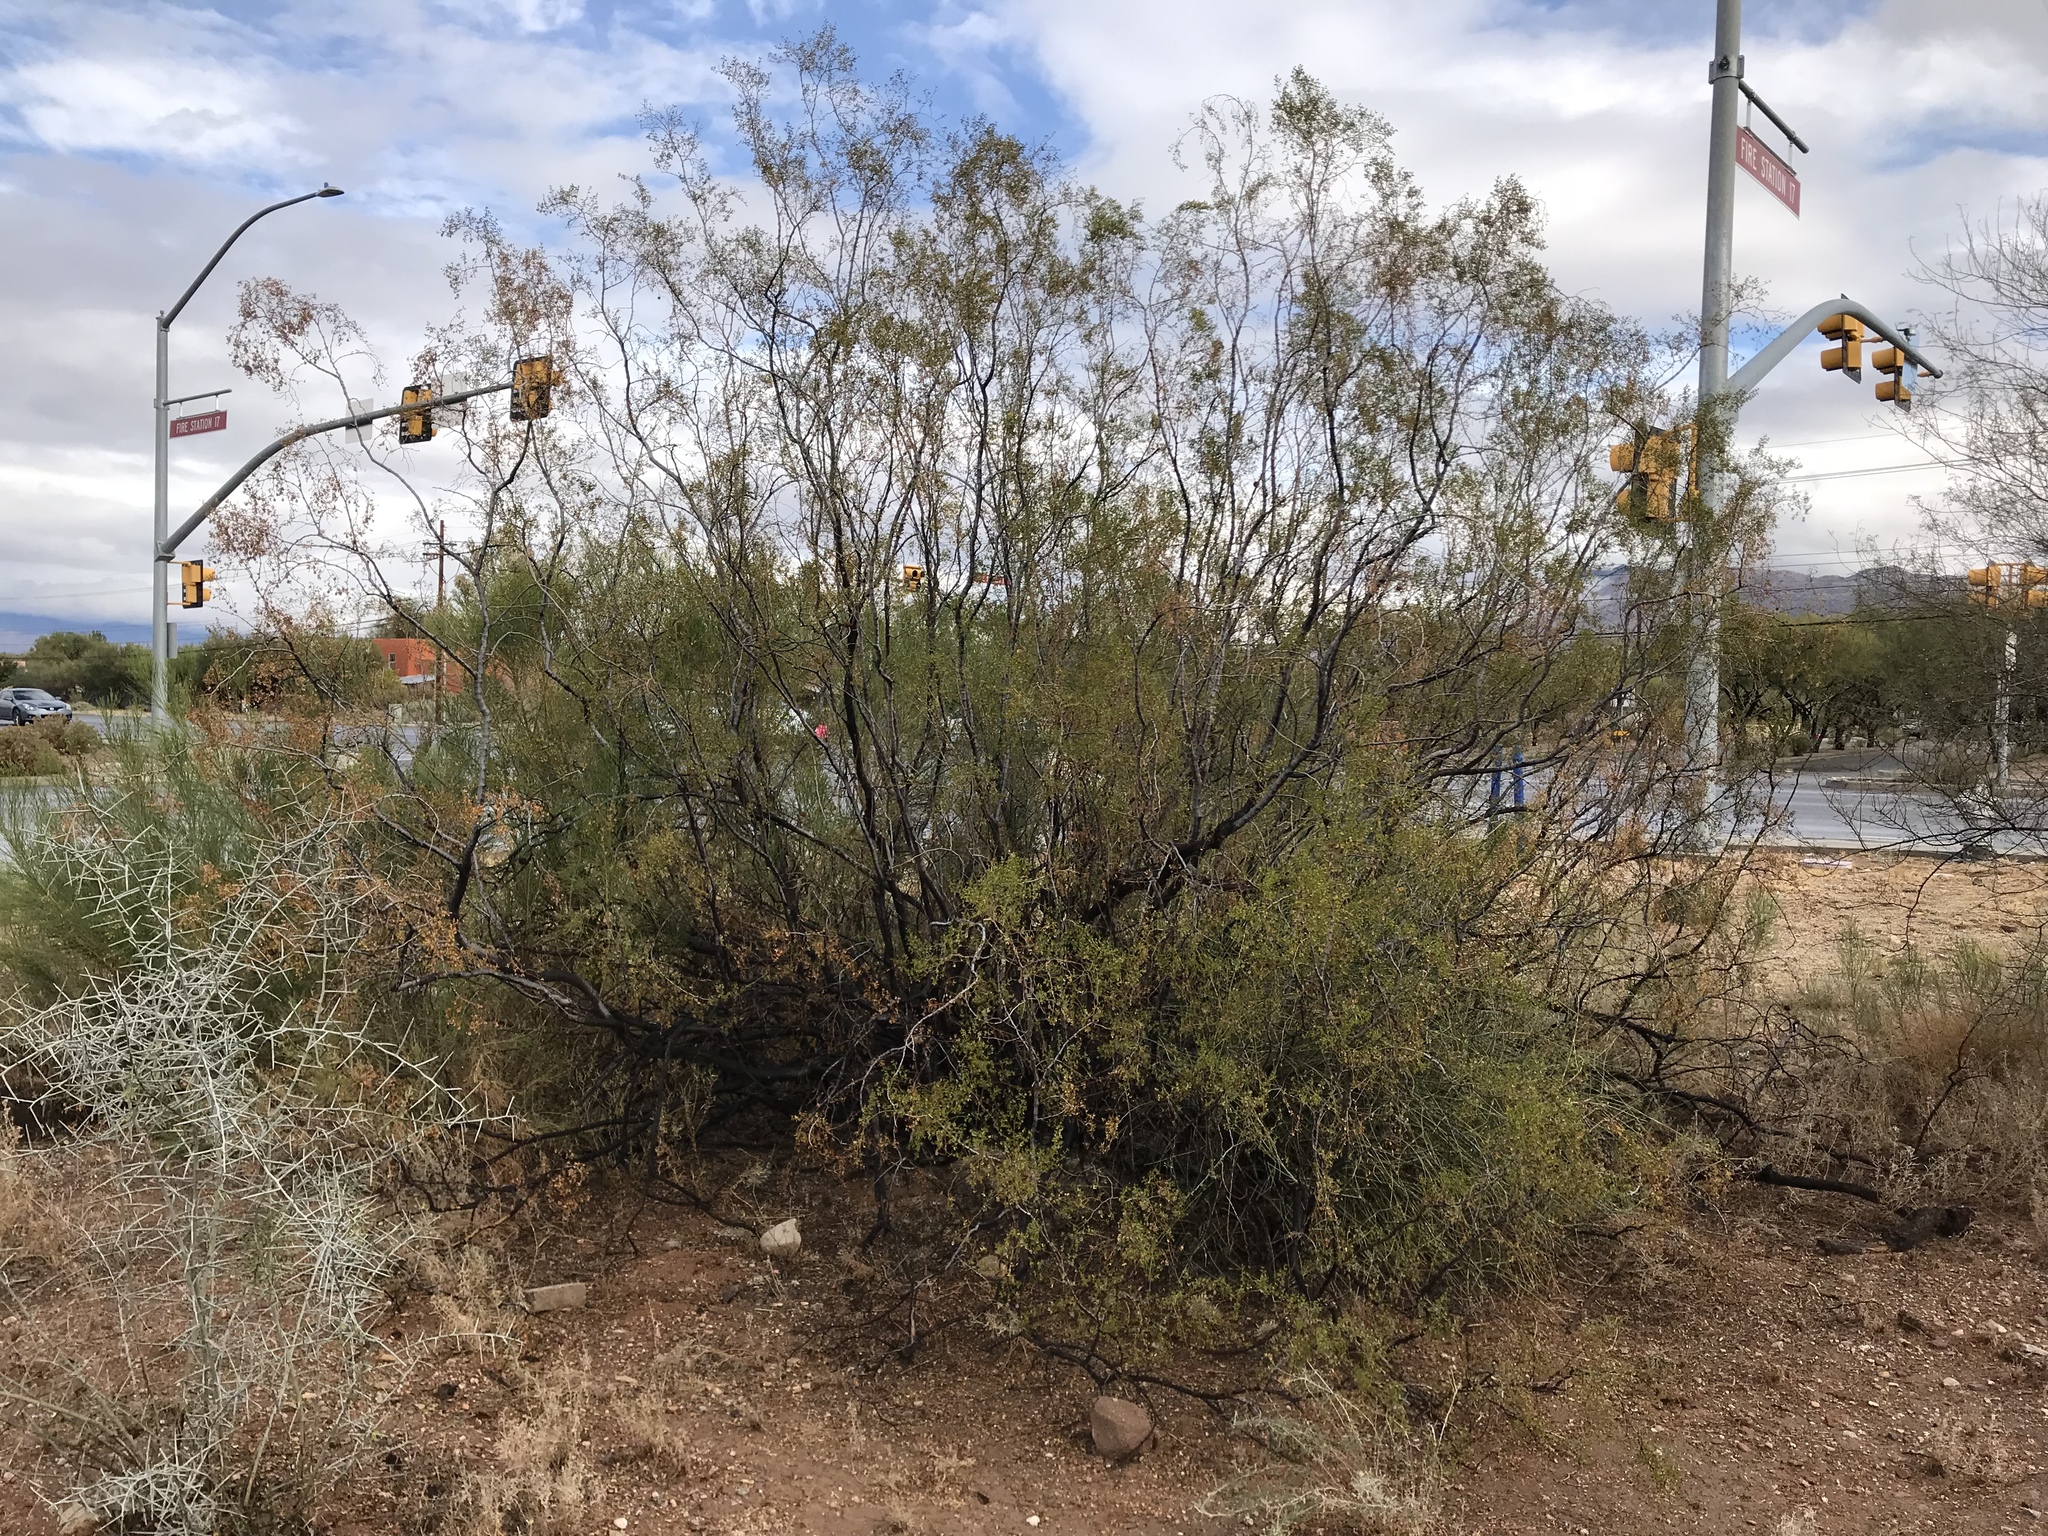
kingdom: Plantae
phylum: Tracheophyta
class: Magnoliopsida
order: Zygophyllales
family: Zygophyllaceae
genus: Larrea
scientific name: Larrea tridentata
